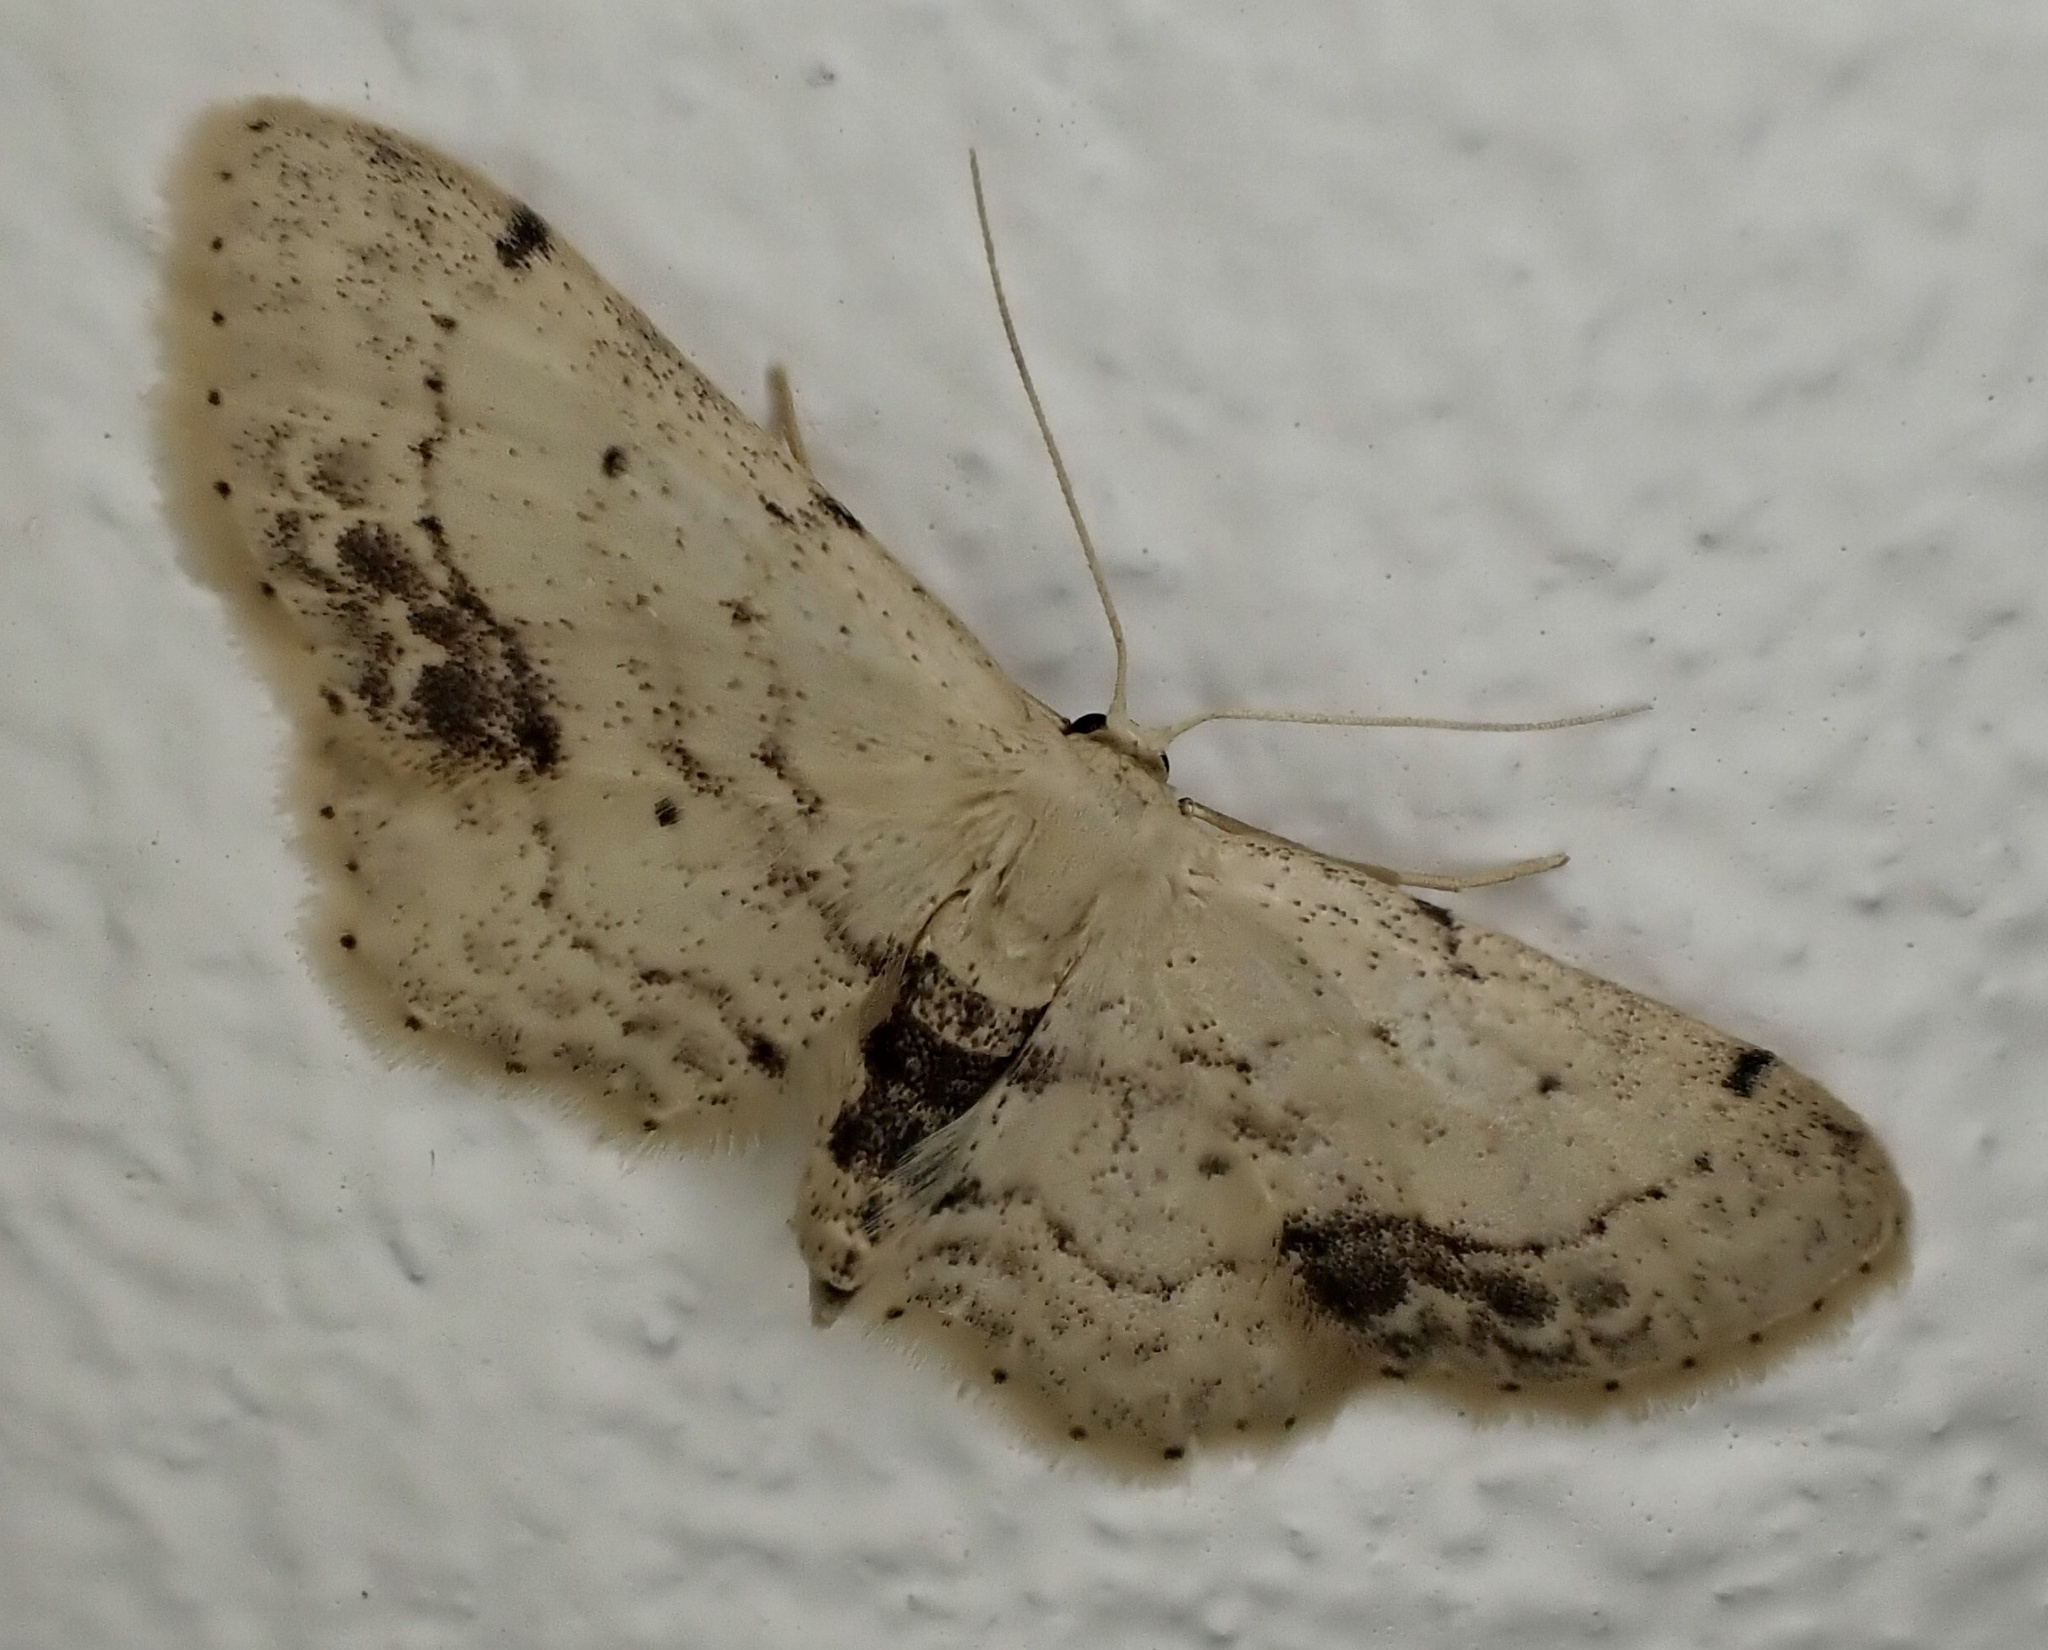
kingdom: Animalia
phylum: Arthropoda
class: Insecta
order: Lepidoptera
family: Geometridae
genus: Idaea
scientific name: Idaea dimidiata
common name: Single-dotted wave
